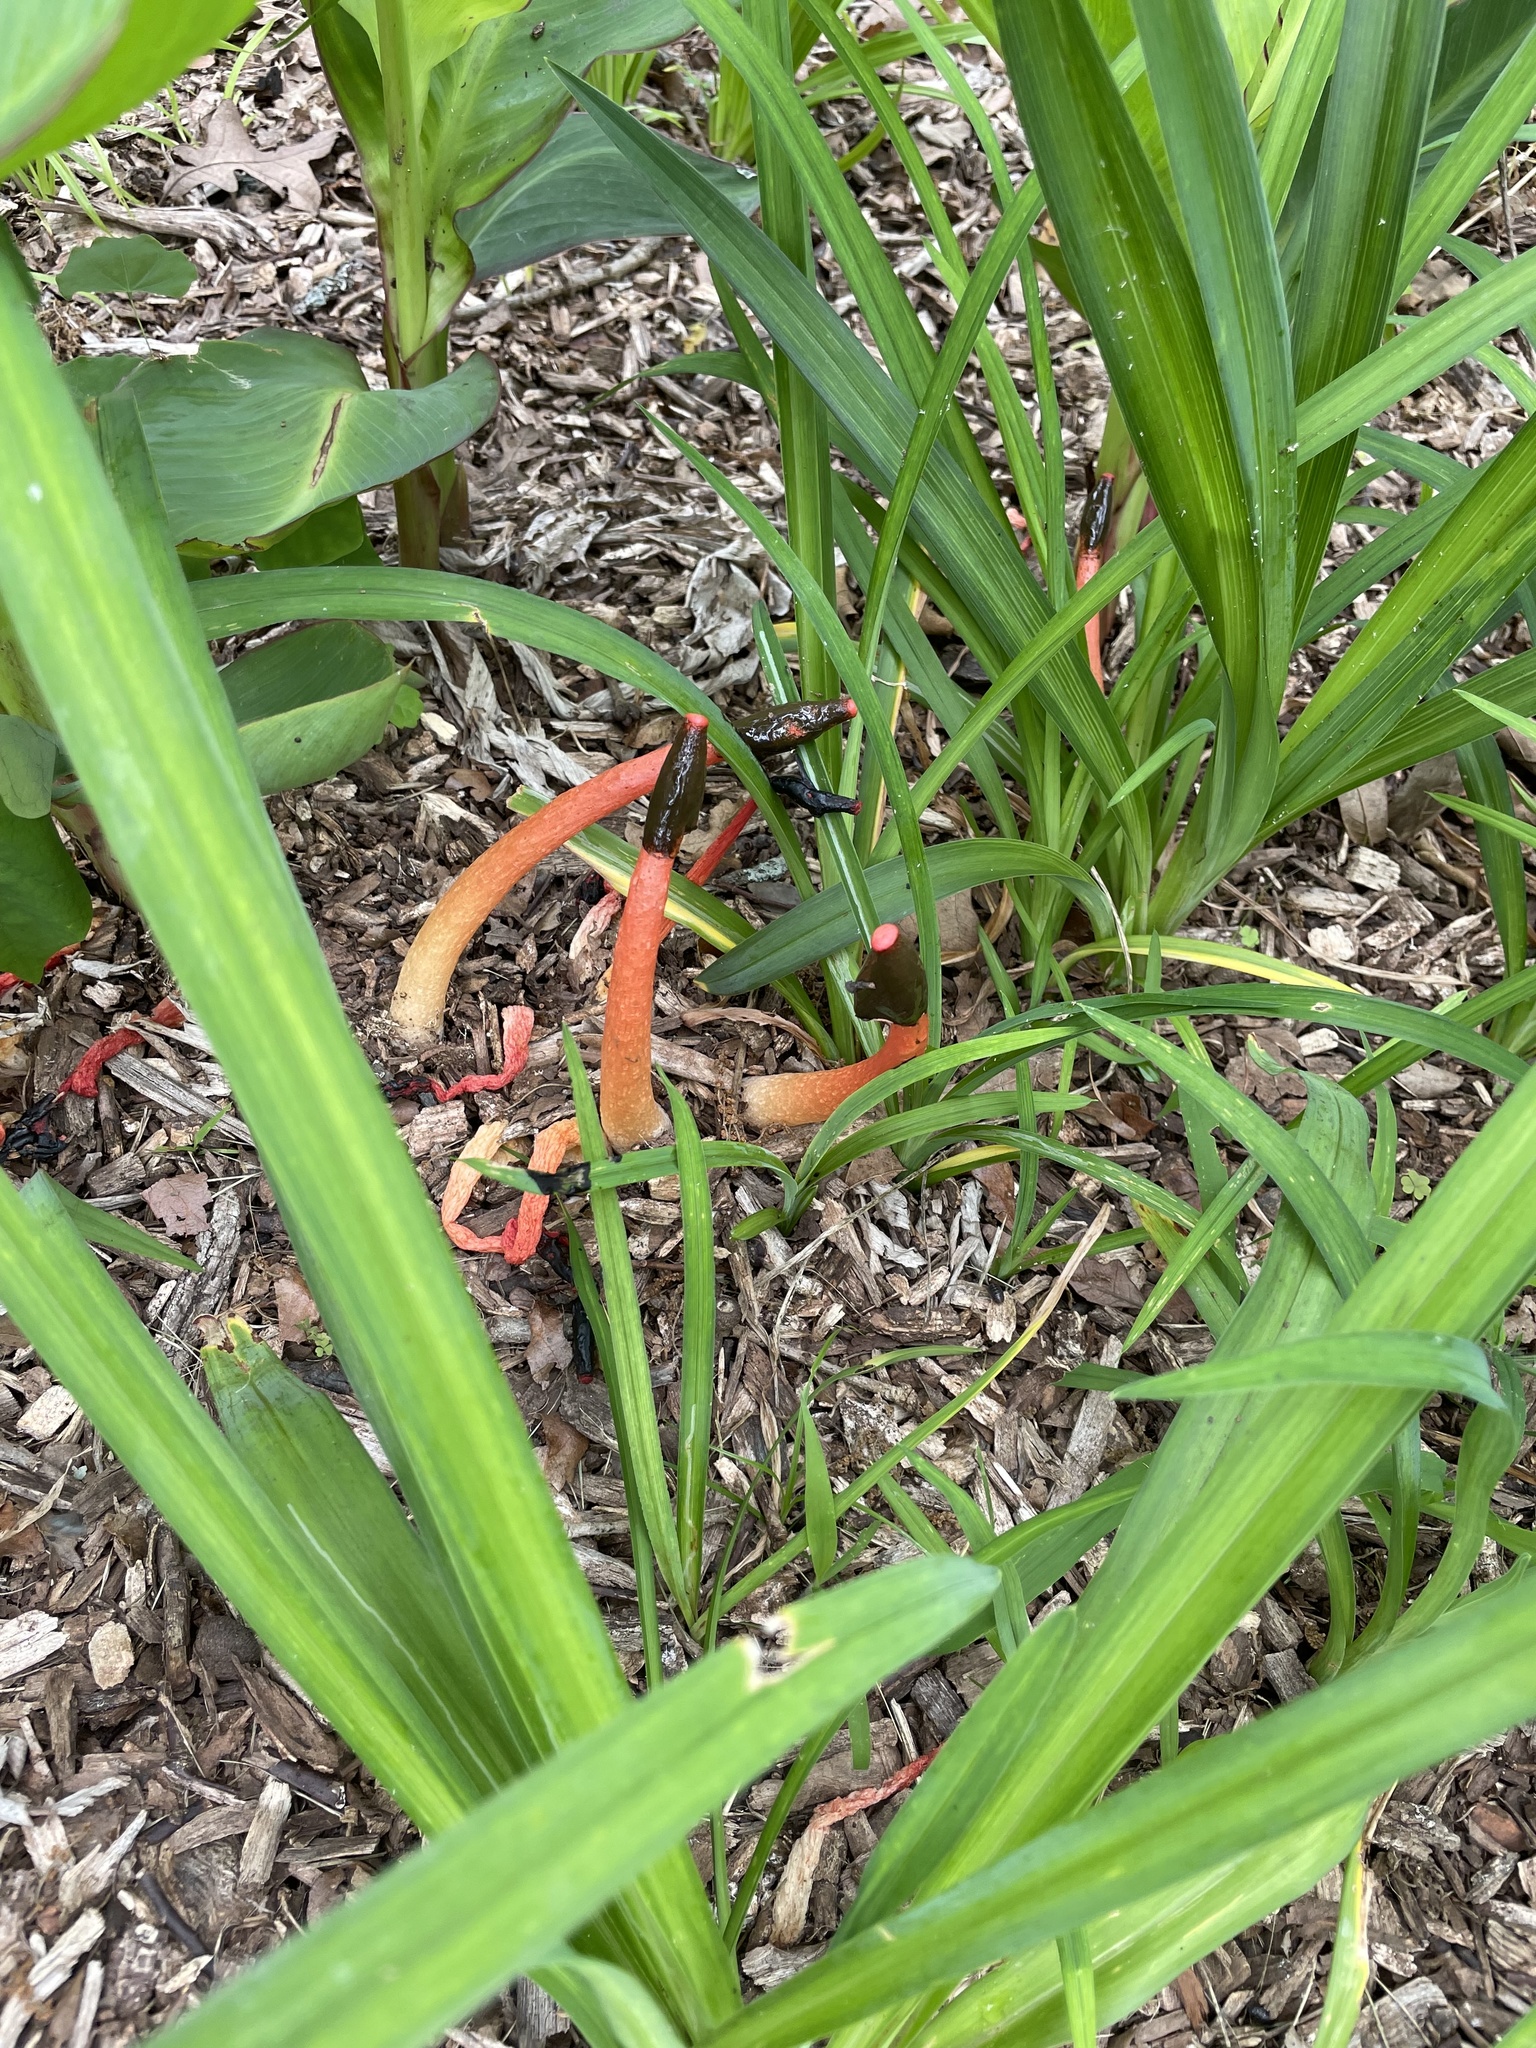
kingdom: Fungi
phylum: Basidiomycota
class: Agaricomycetes
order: Phallales
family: Phallaceae
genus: Phallus
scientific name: Phallus rugulosus
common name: Wrinkly stinkhorn
